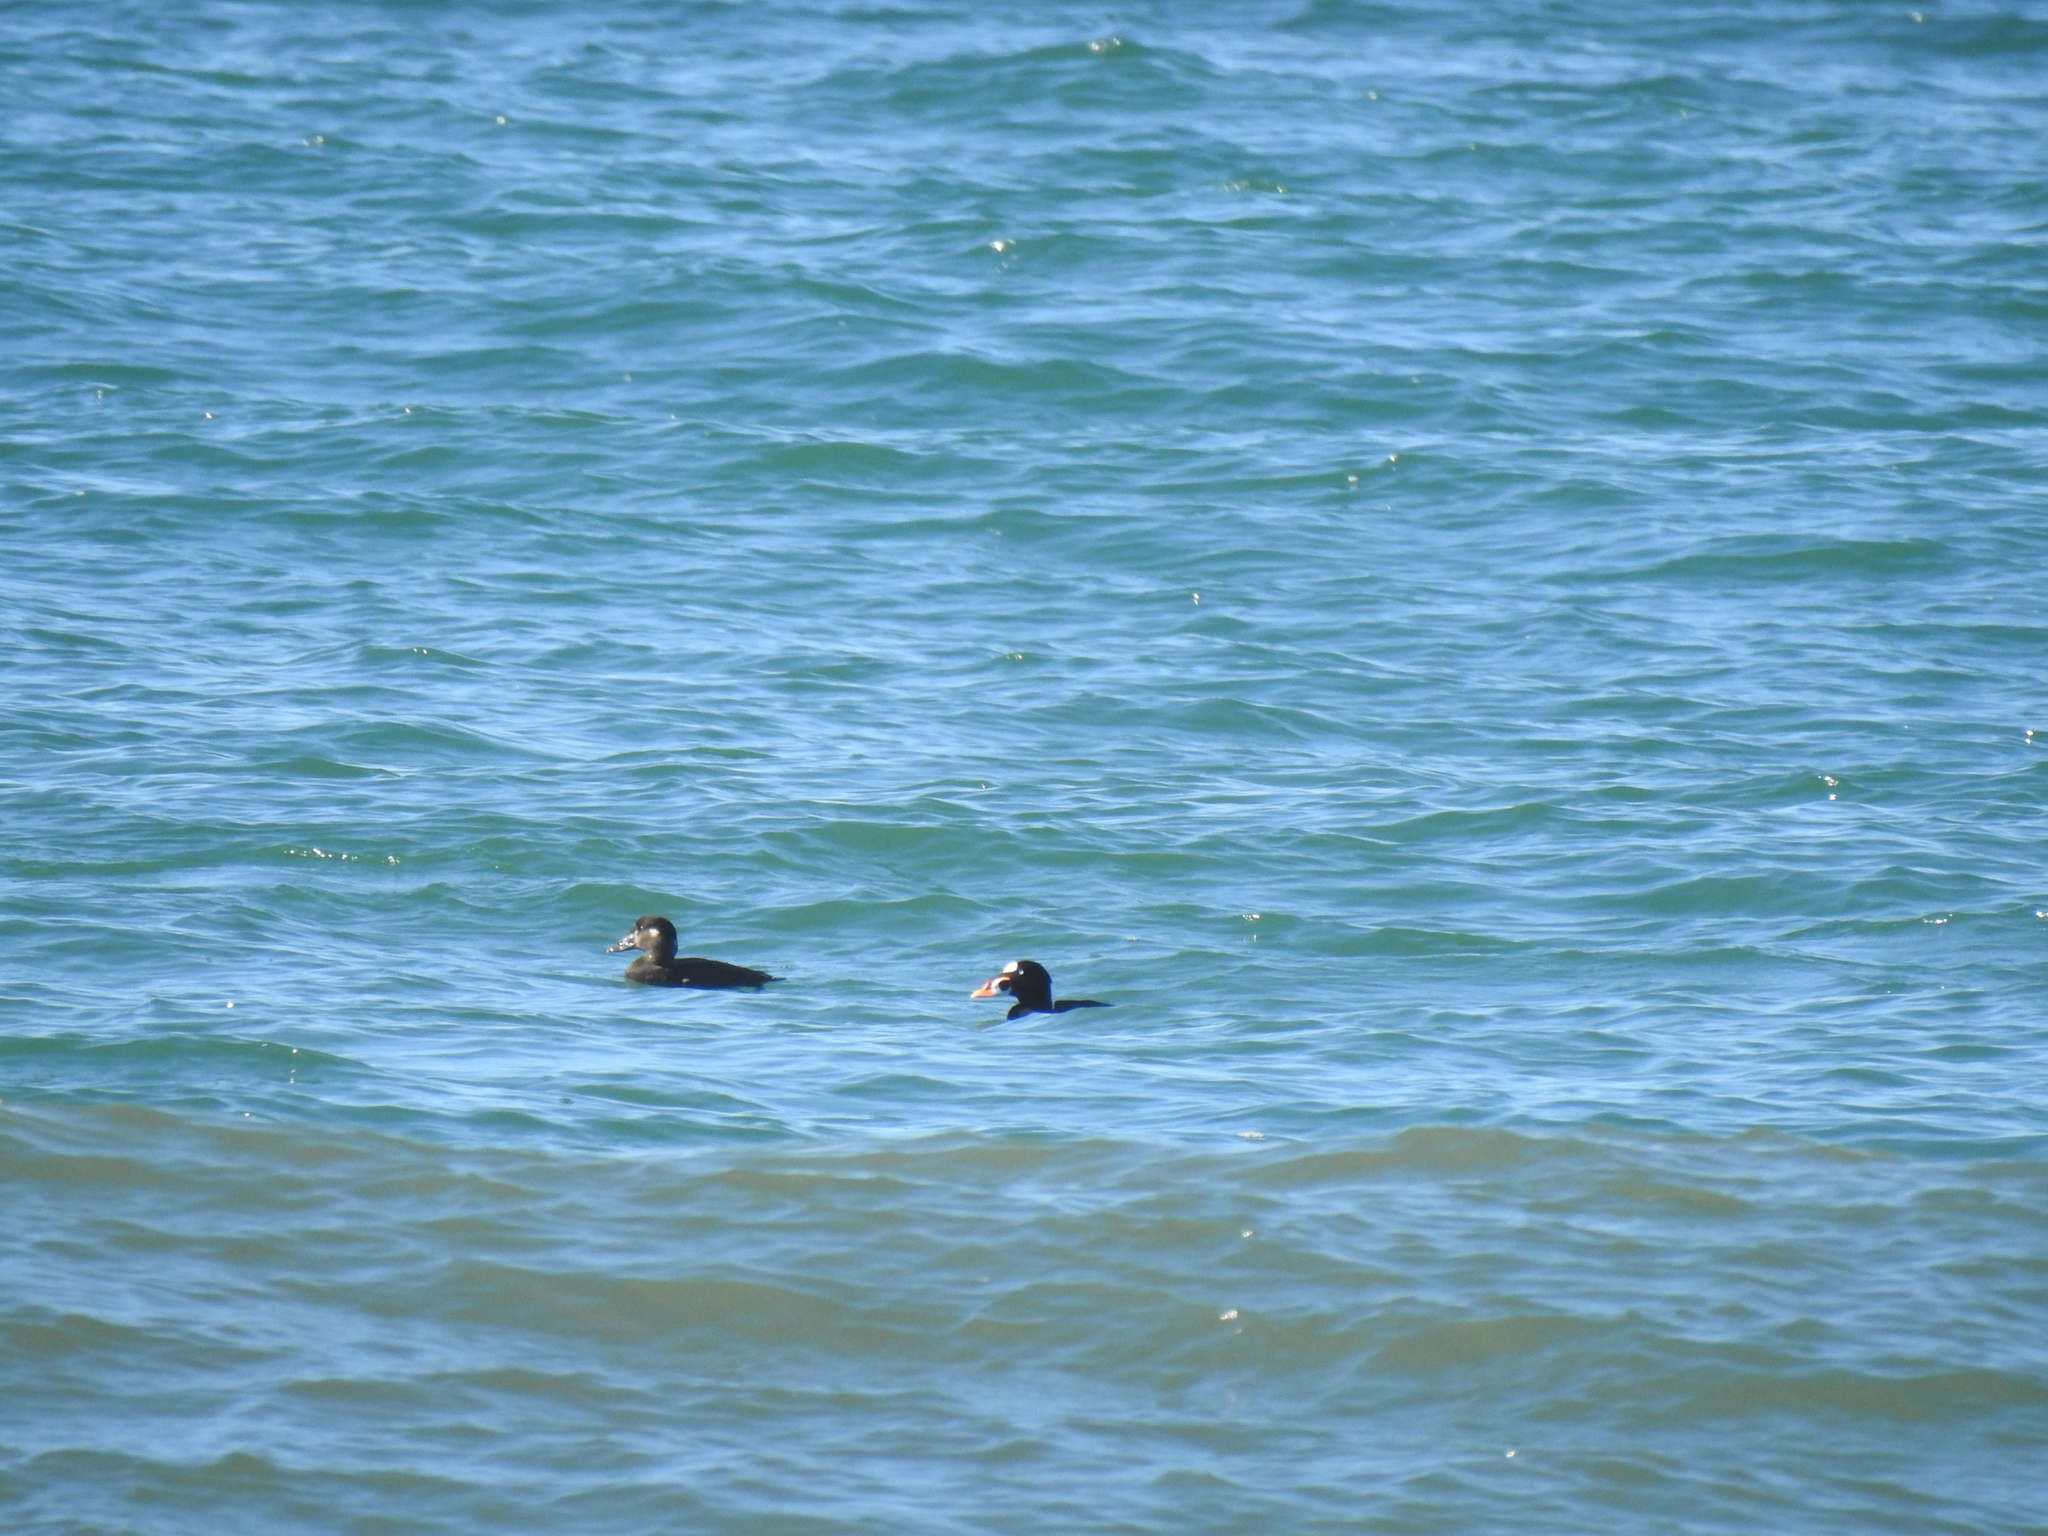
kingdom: Animalia
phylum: Chordata
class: Aves
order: Anseriformes
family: Anatidae
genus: Melanitta
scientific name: Melanitta perspicillata
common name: Surf scoter
